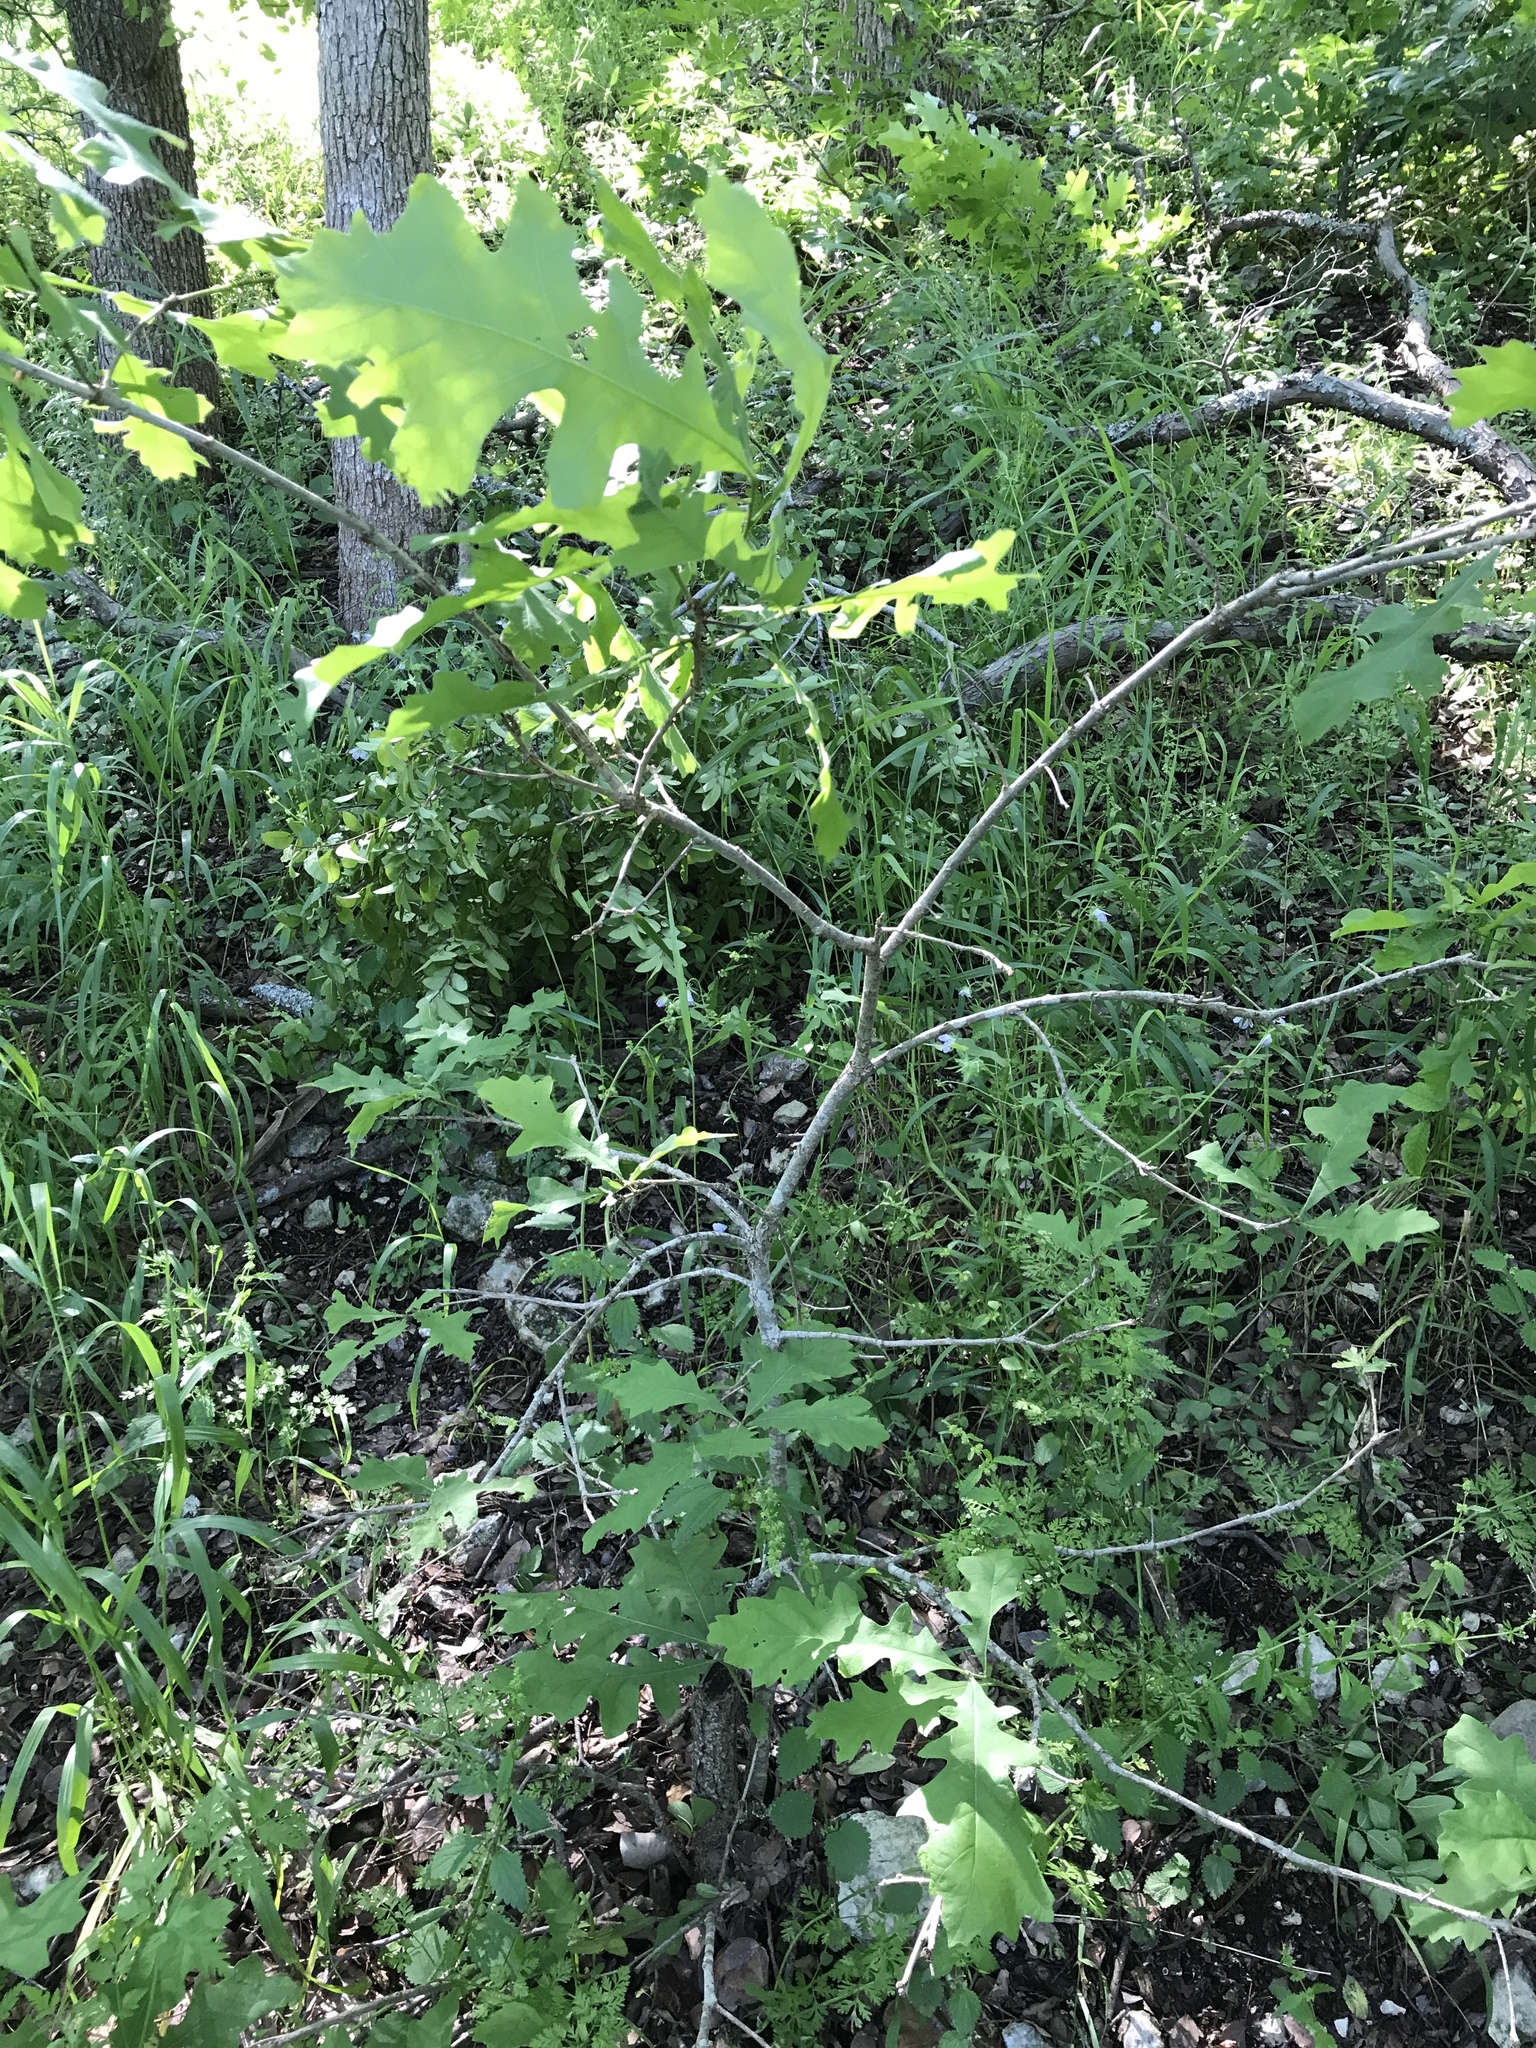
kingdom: Plantae
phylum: Tracheophyta
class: Magnoliopsida
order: Fagales
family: Fagaceae
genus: Quercus
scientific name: Quercus macrocarpa
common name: Bur oak
